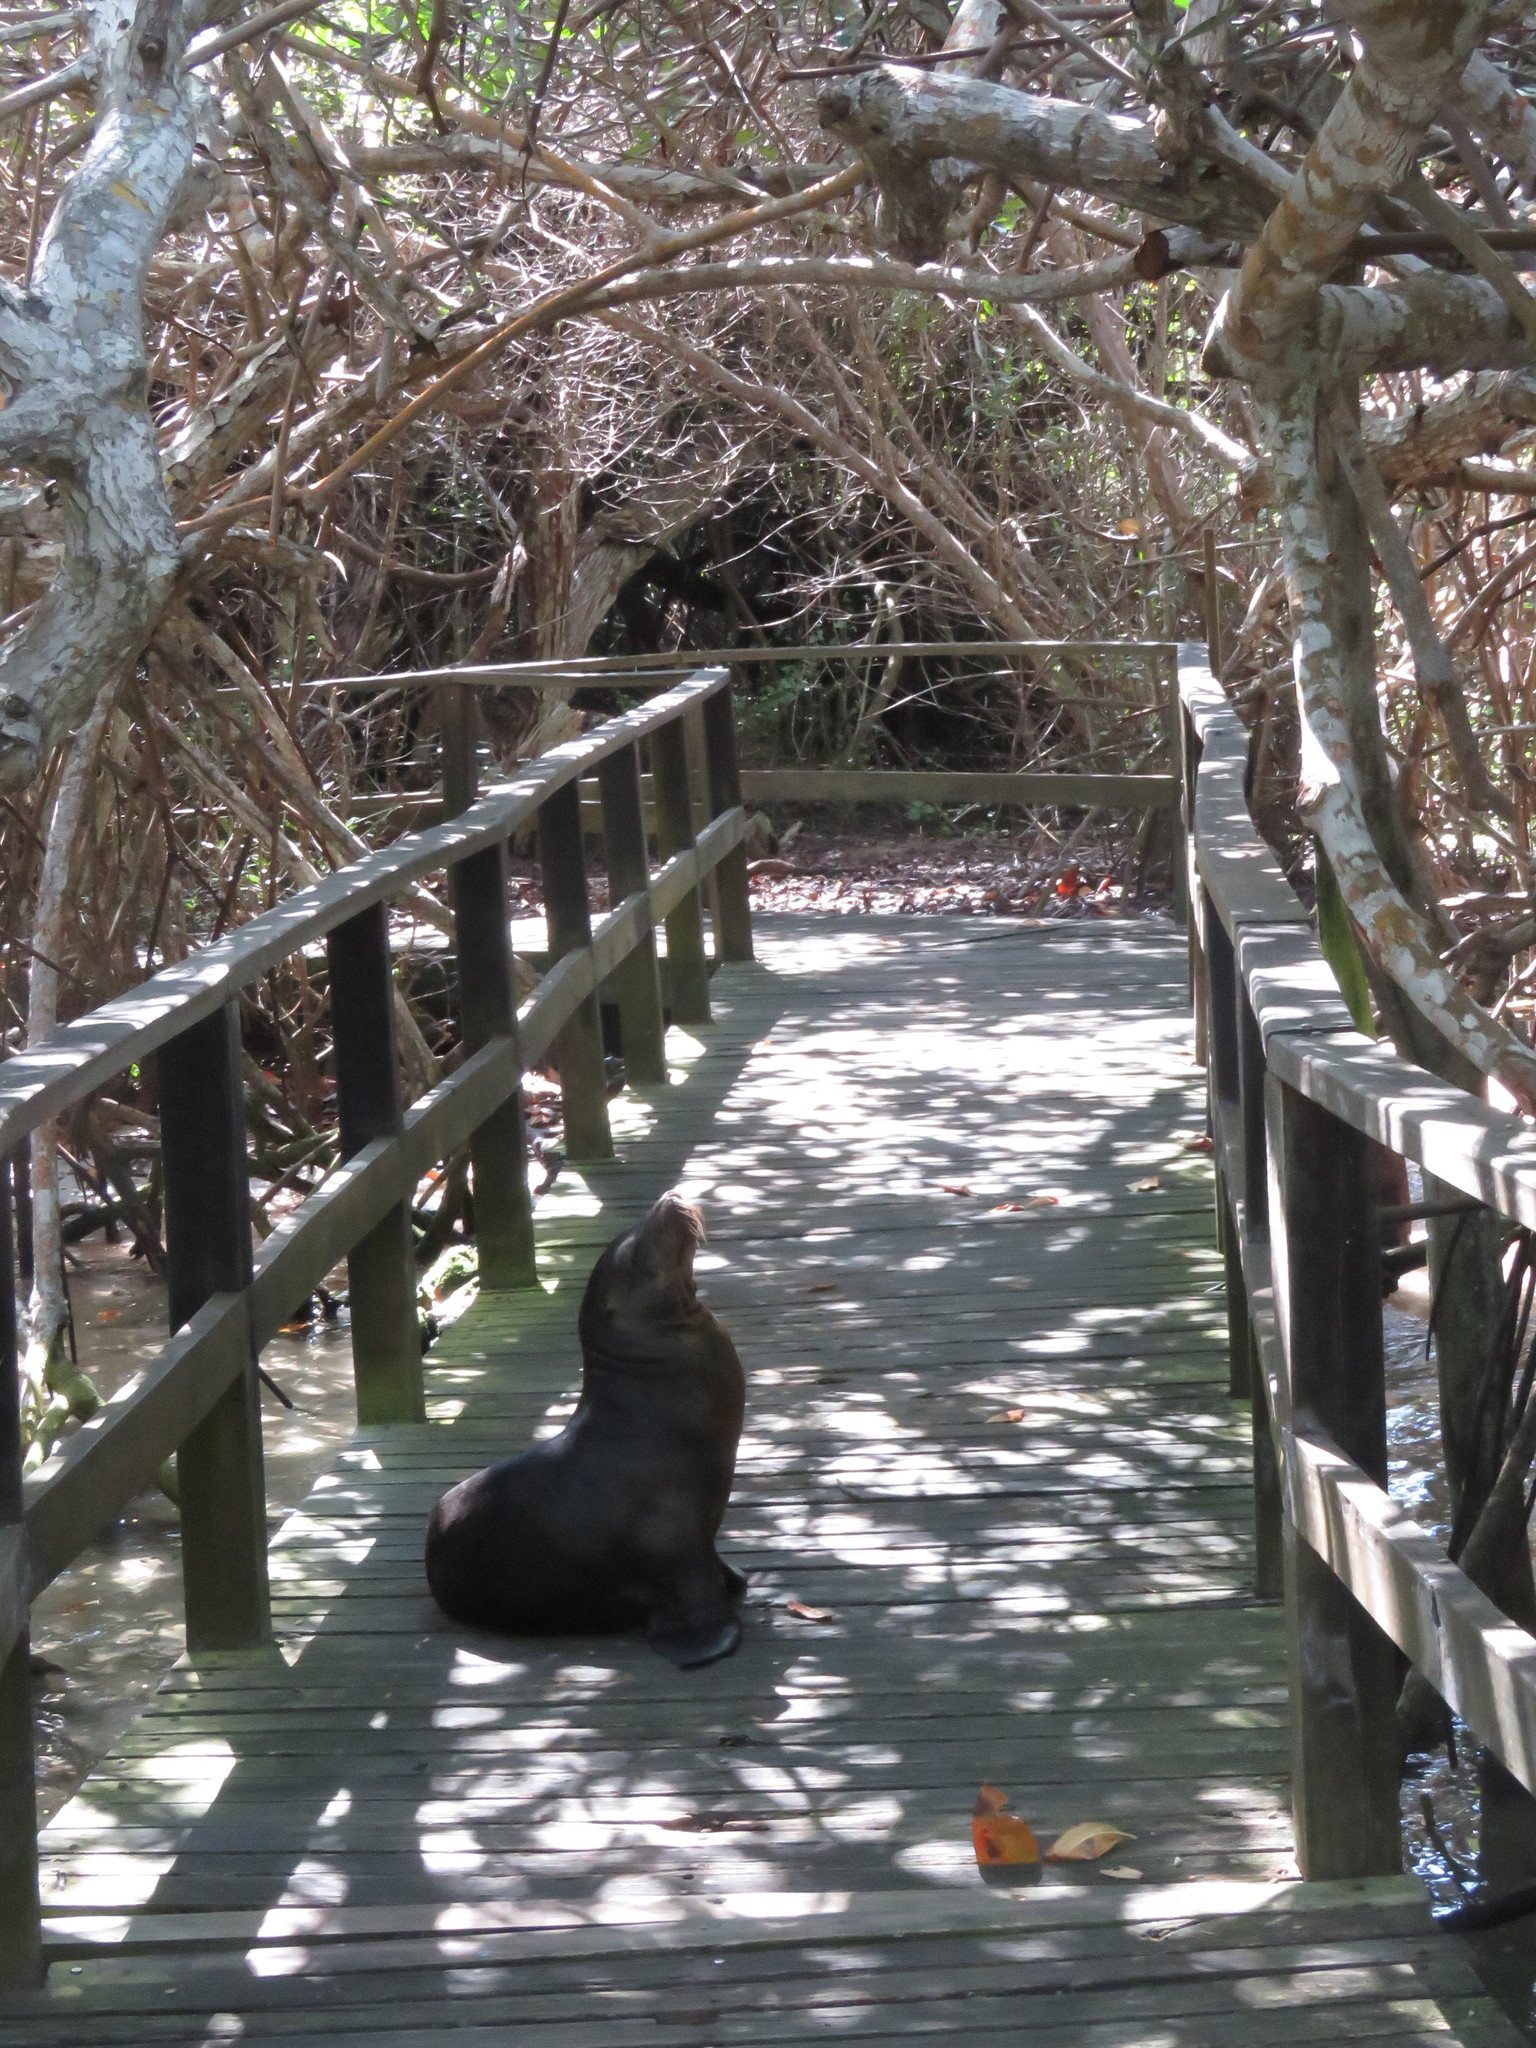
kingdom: Animalia
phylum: Chordata
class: Mammalia
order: Carnivora
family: Otariidae
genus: Zalophus
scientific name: Zalophus wollebaeki
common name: Galapagos sea lion
